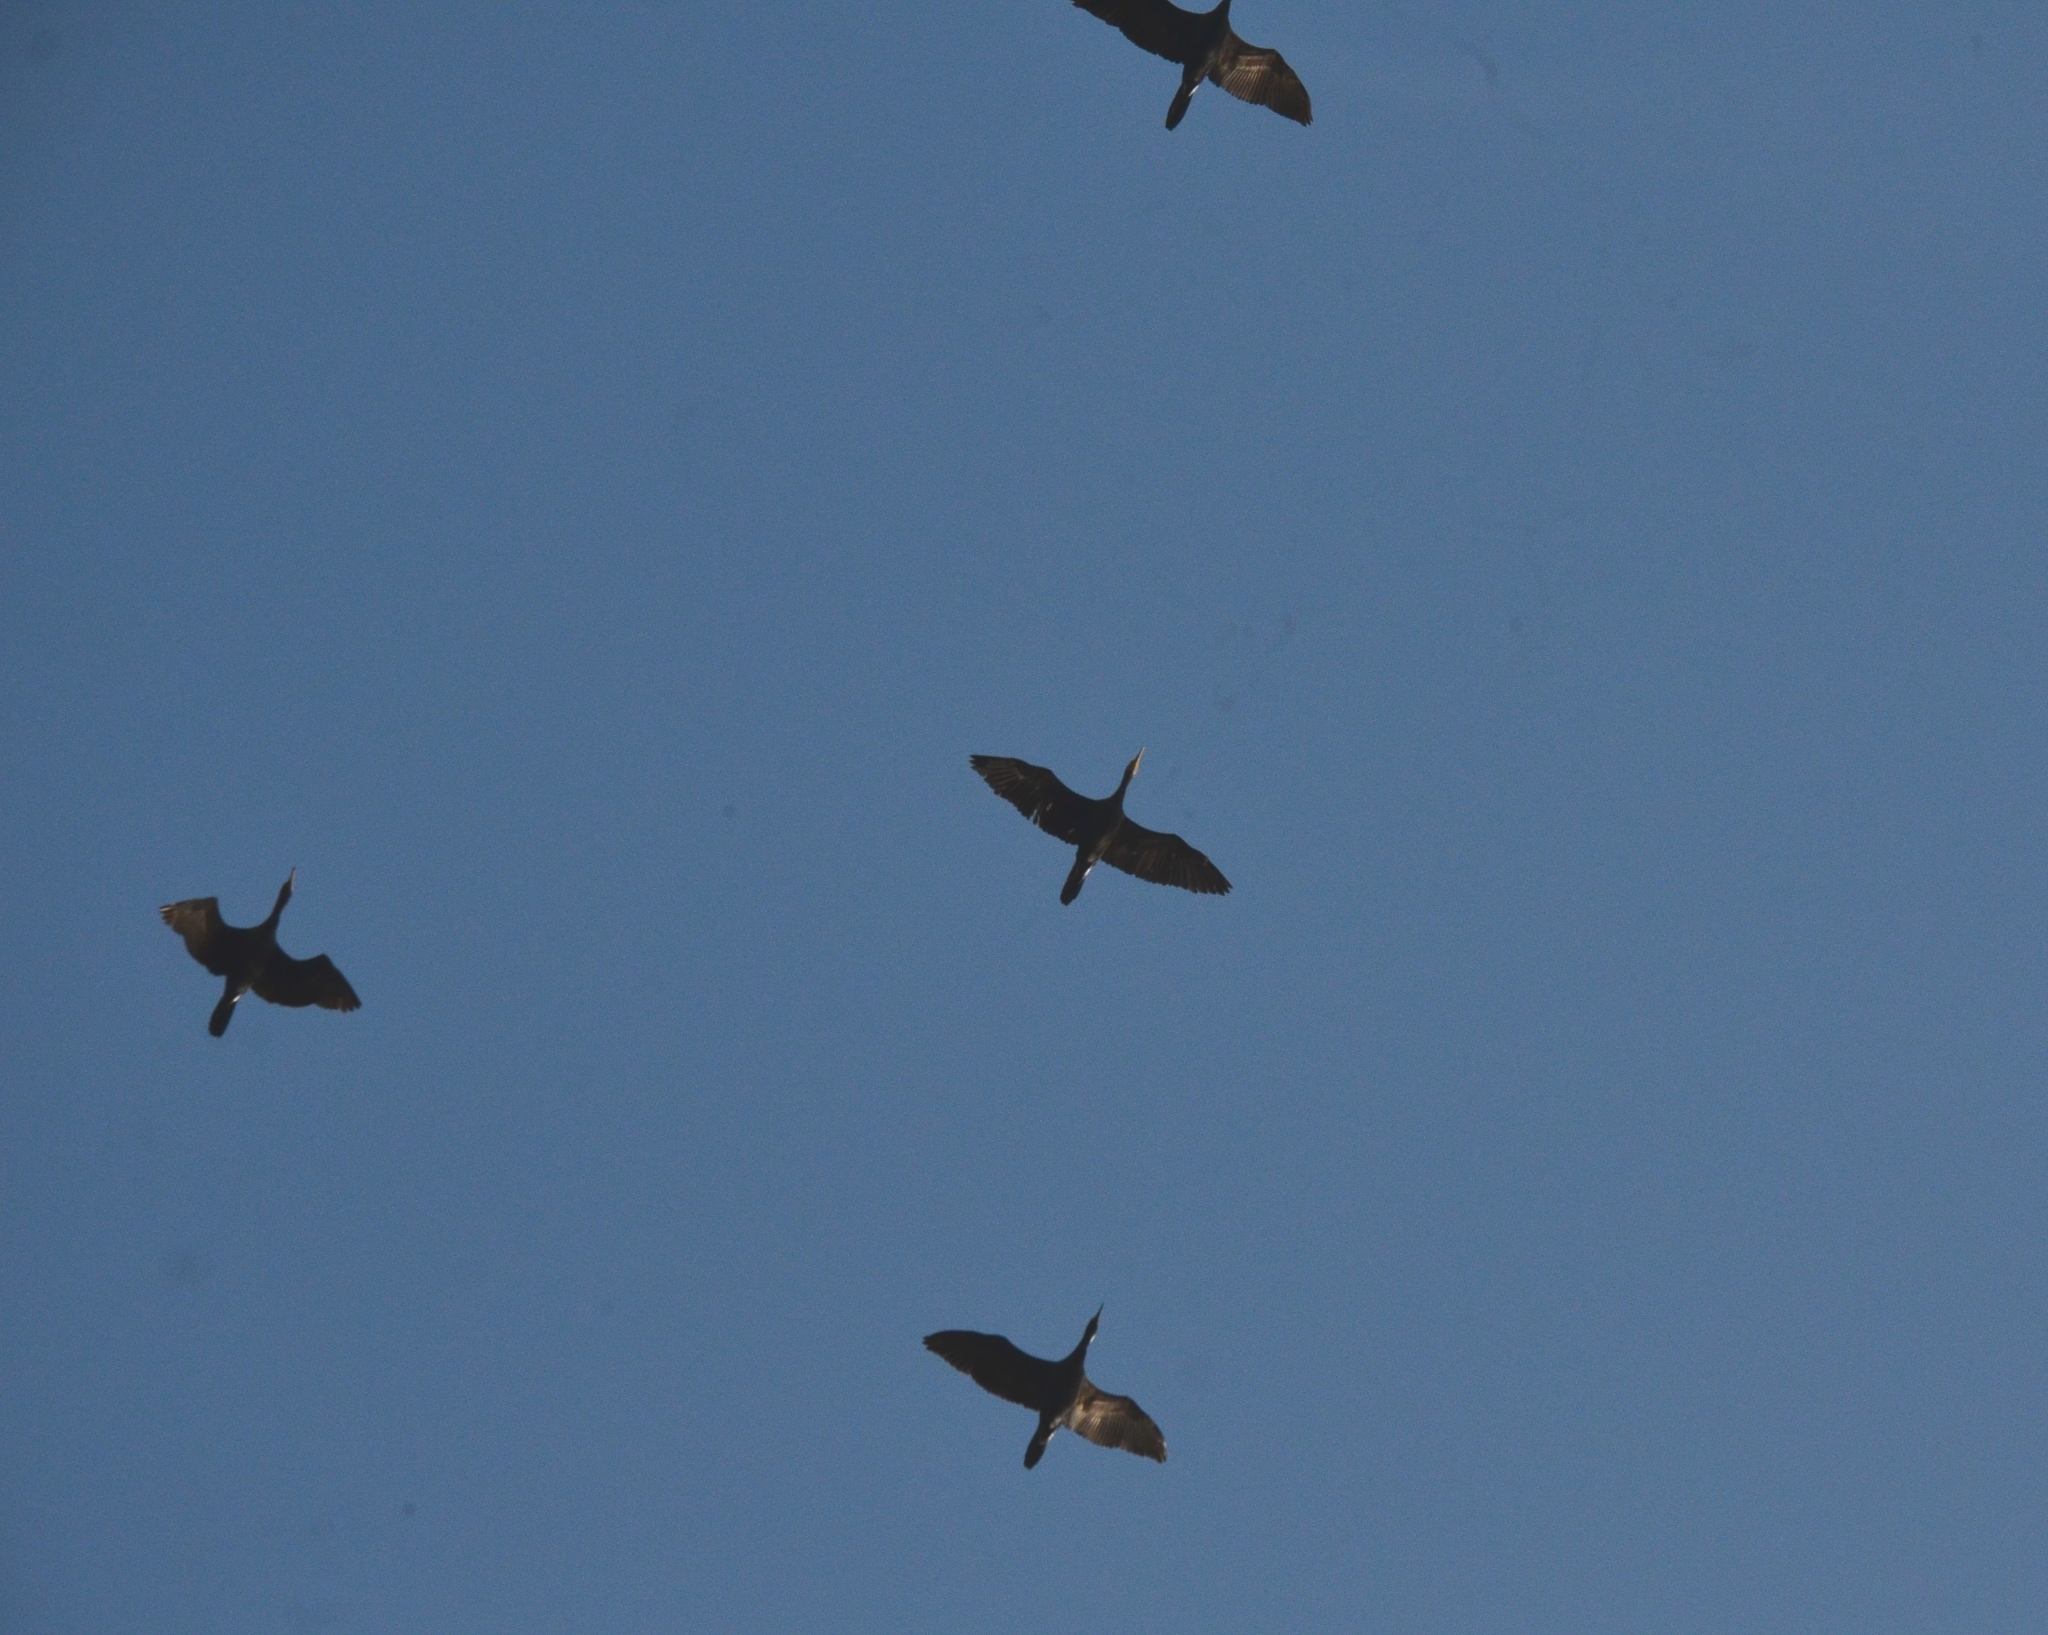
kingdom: Animalia
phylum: Chordata
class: Aves
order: Suliformes
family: Phalacrocoracidae
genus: Phalacrocorax
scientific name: Phalacrocorax fuscicollis
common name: Indian cormorant
